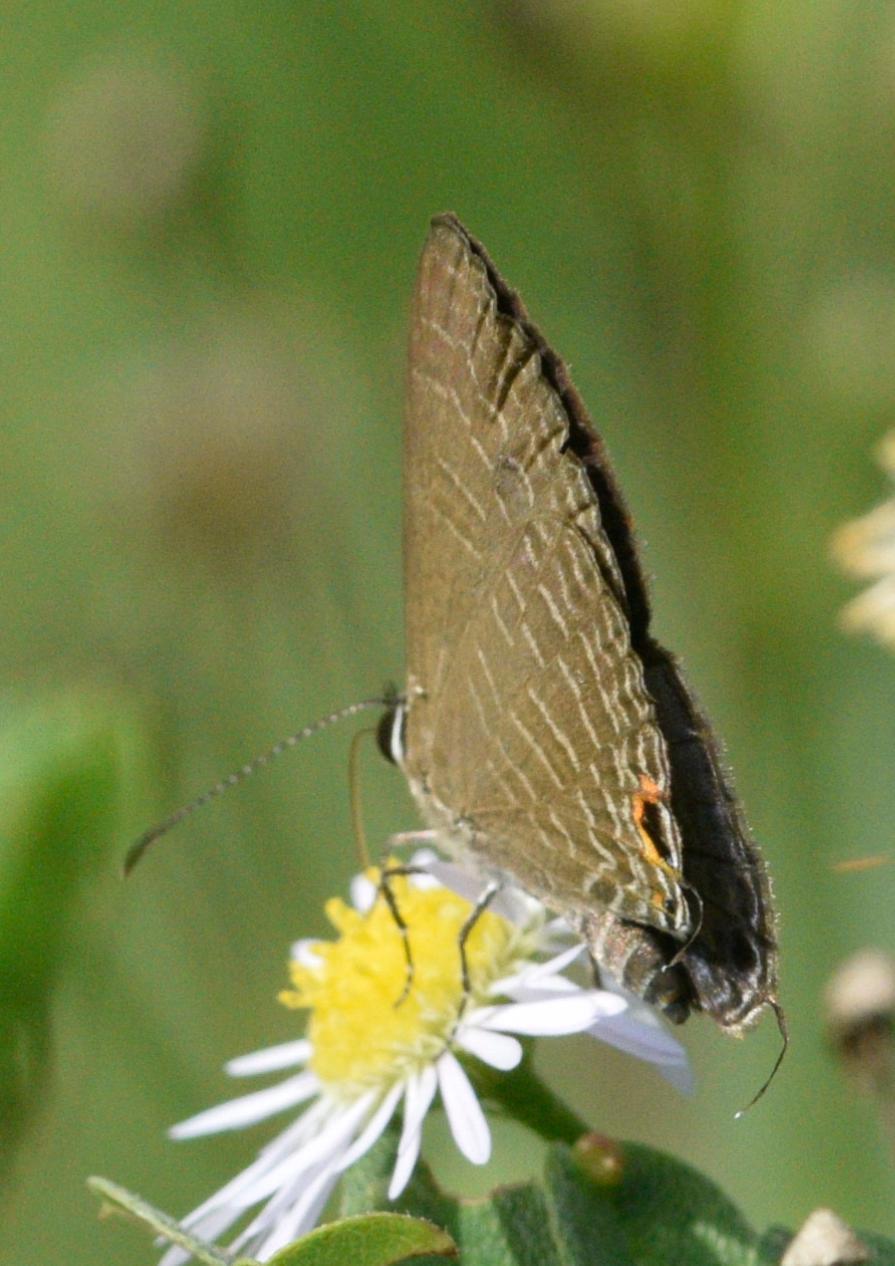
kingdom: Animalia
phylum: Arthropoda
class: Insecta
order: Lepidoptera
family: Lycaenidae
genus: Jamides
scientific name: Jamides bochus
